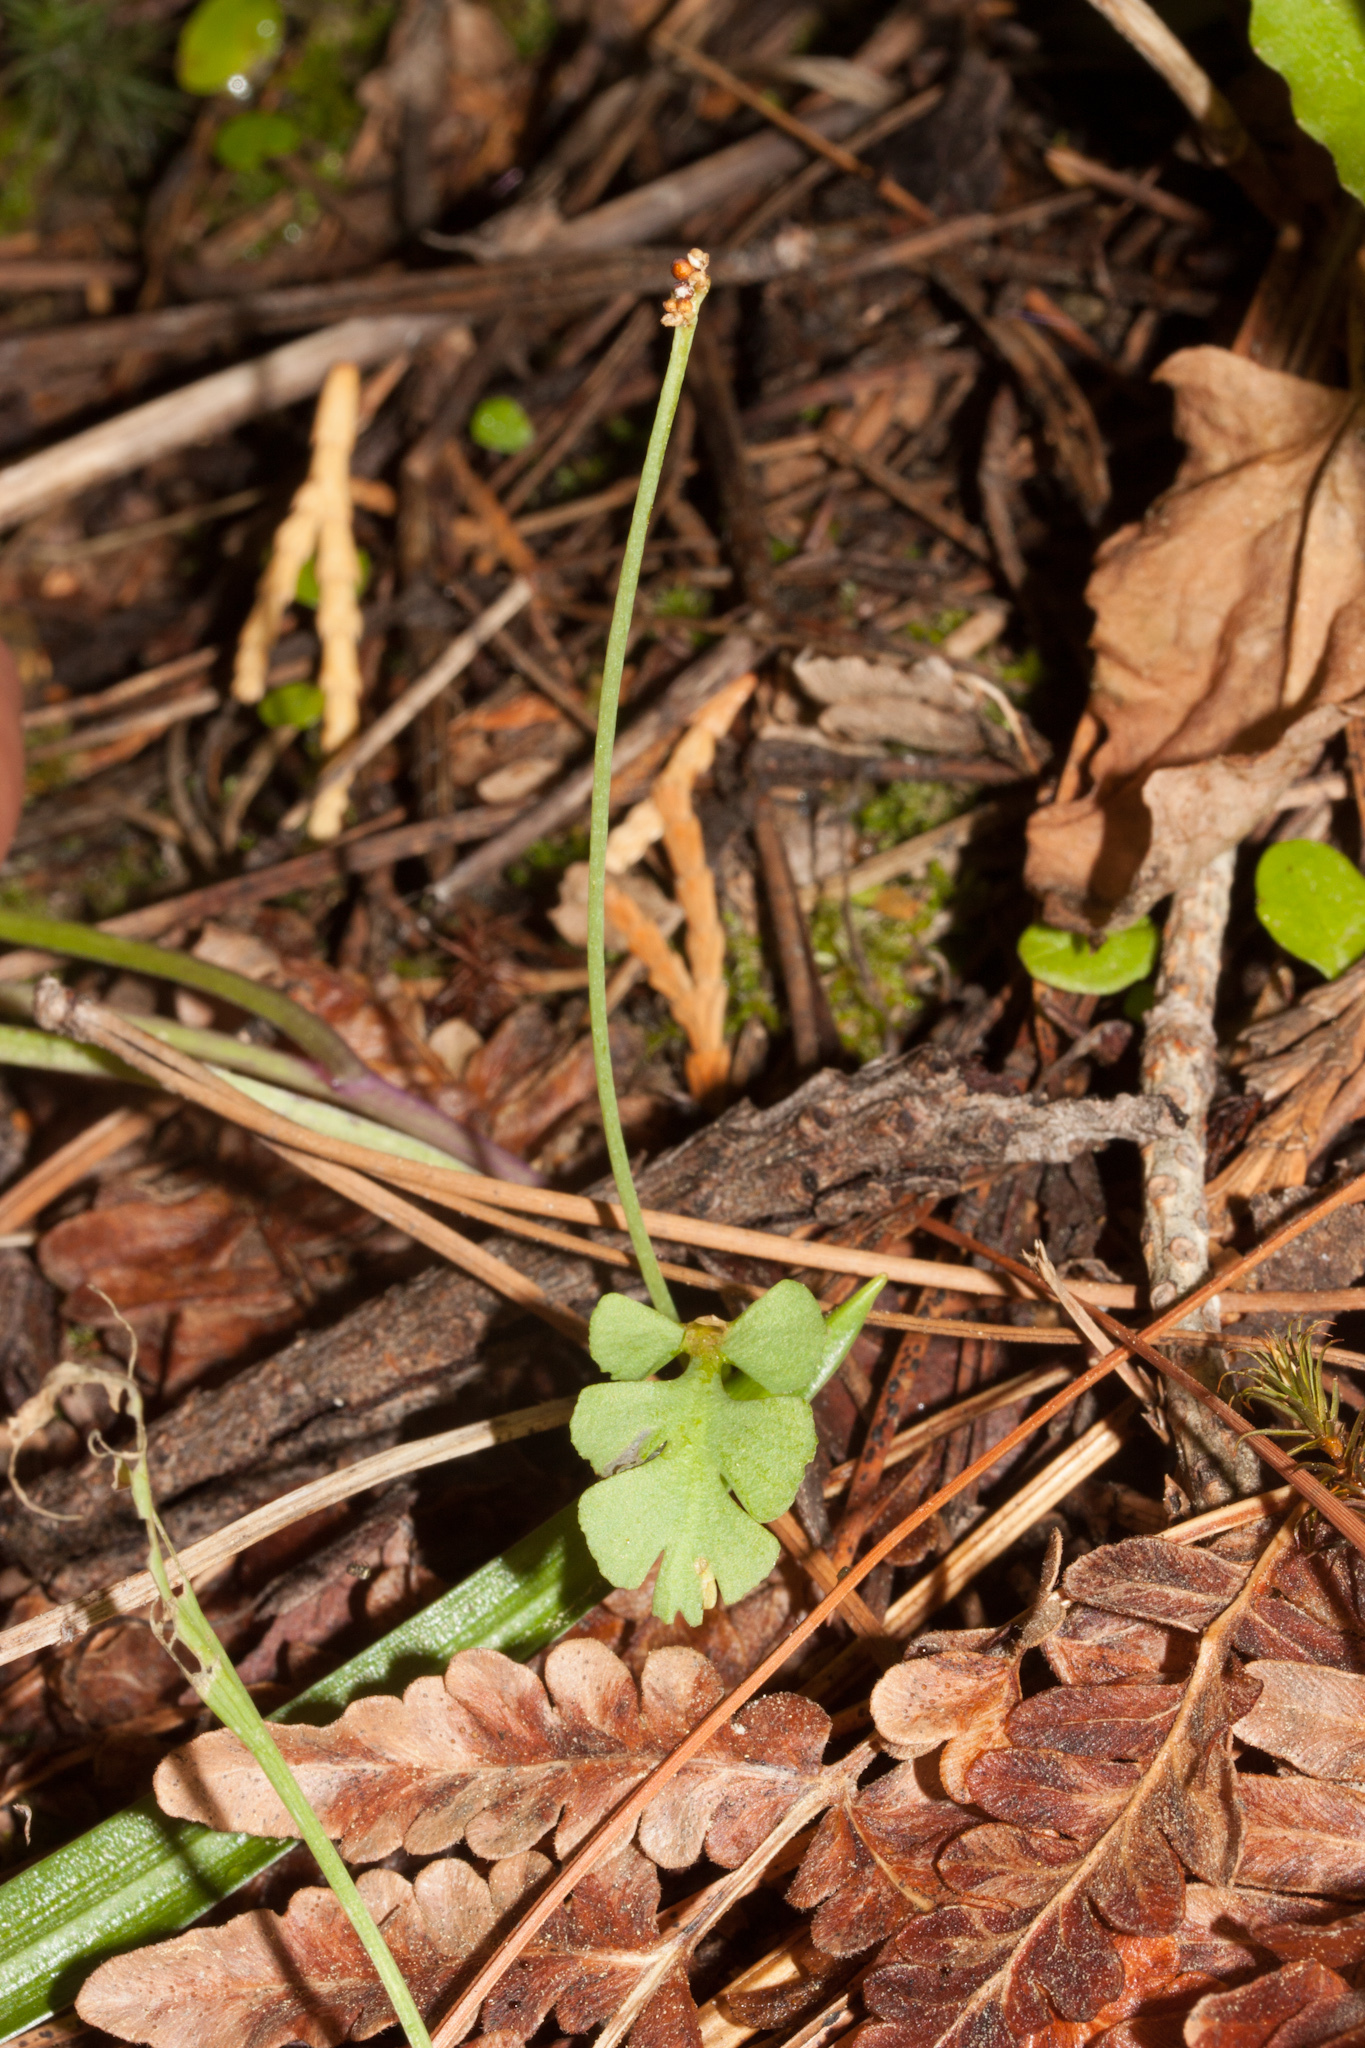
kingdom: Plantae
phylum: Tracheophyta
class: Polypodiopsida
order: Ophioglossales
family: Ophioglossaceae
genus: Botrychium
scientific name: Botrychium simplex
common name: Least moonwort
